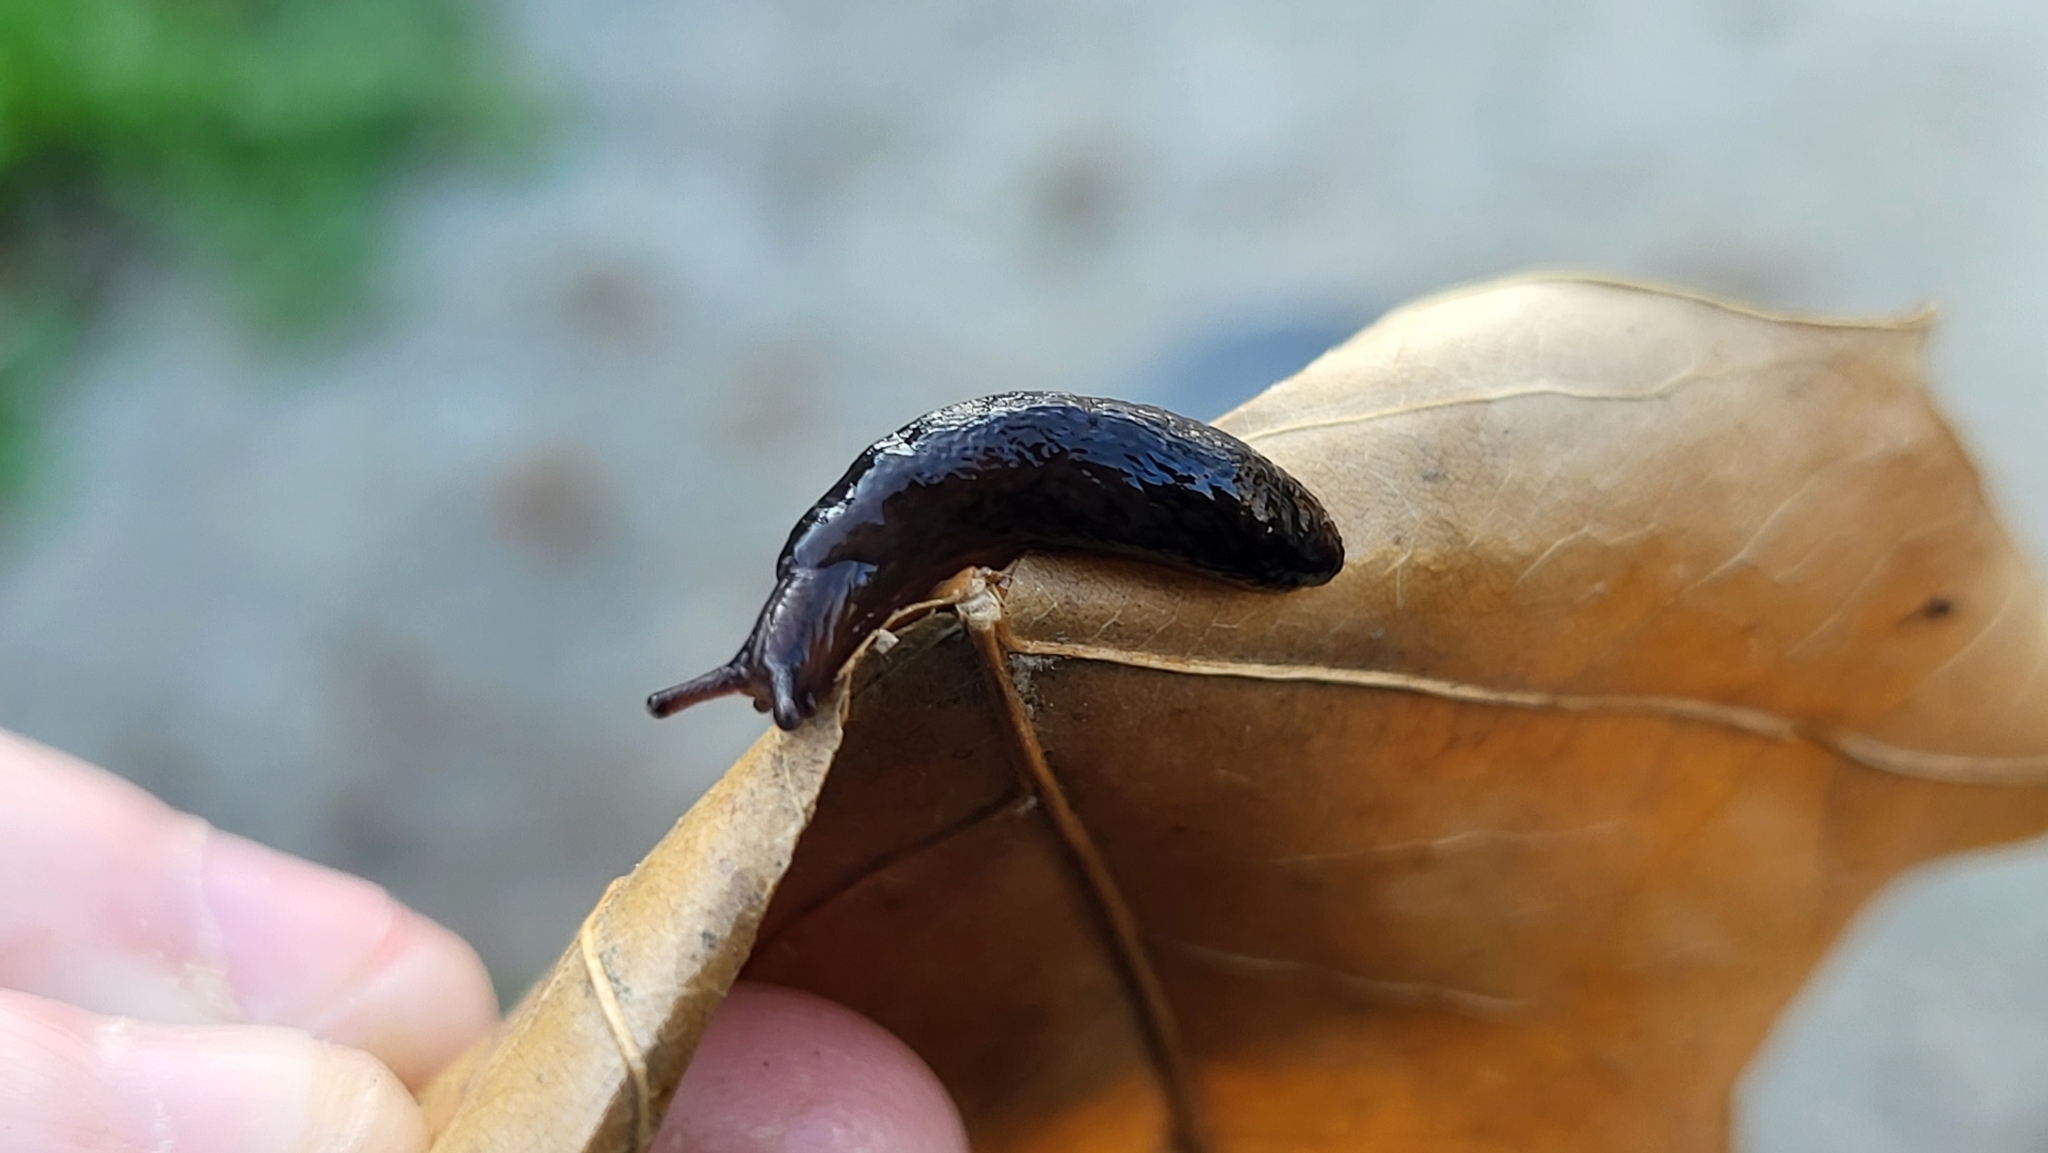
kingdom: Animalia
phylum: Mollusca
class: Gastropoda
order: Stylommatophora
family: Agriolimacidae
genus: Deroceras
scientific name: Deroceras laeve
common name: Marsh slug
